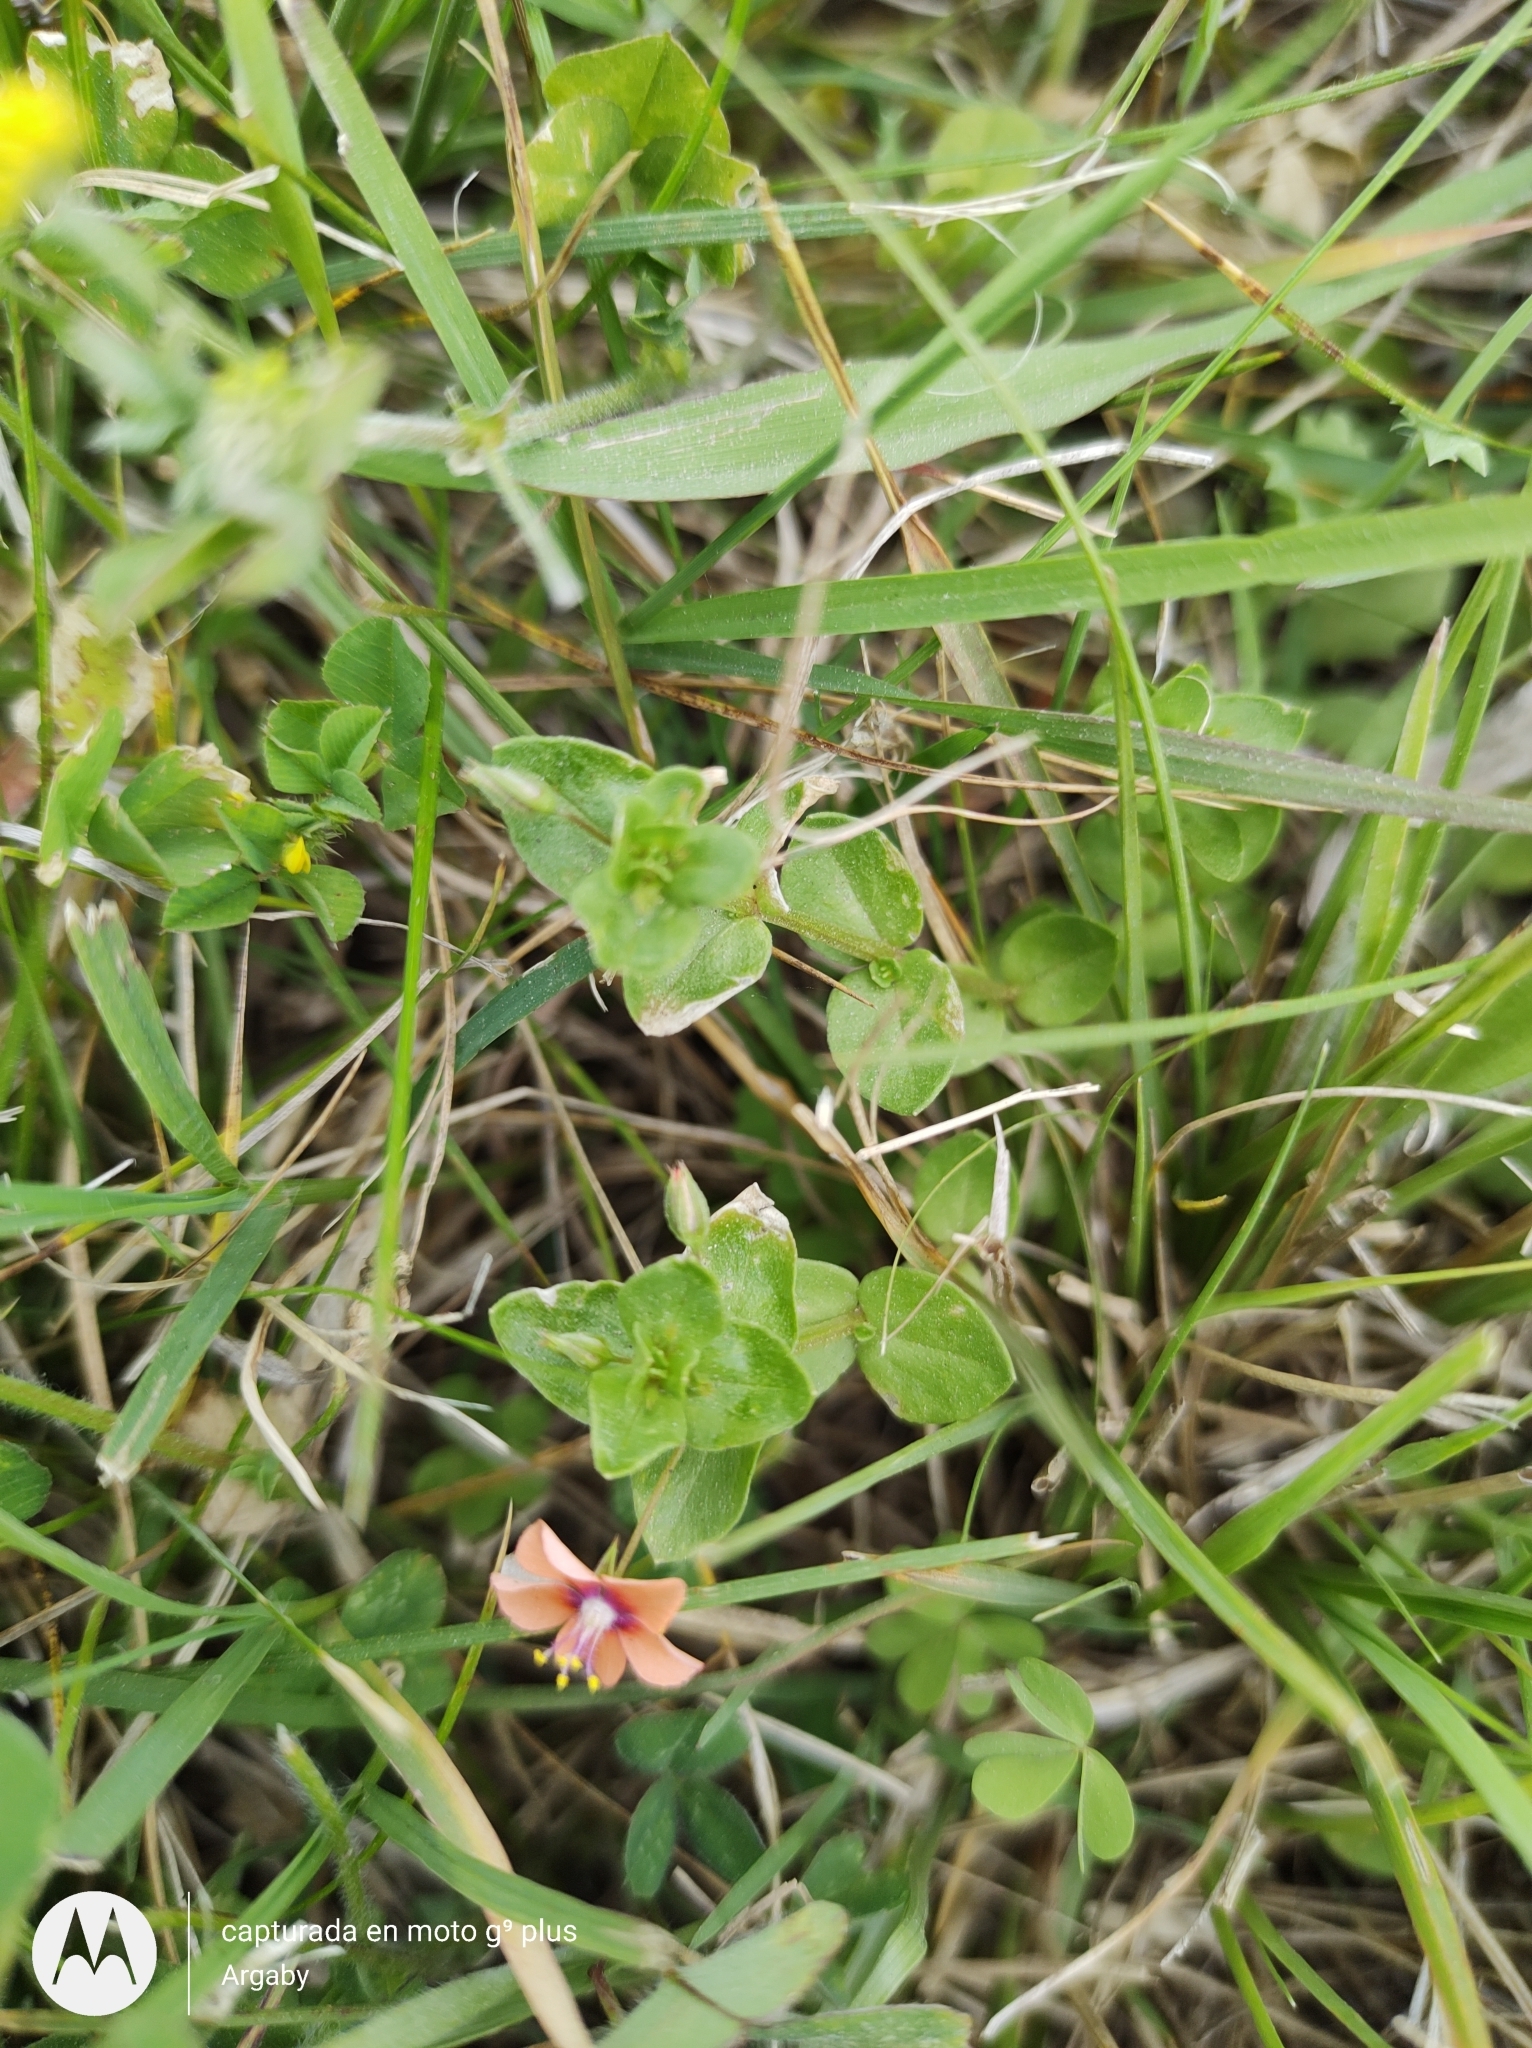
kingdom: Plantae
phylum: Tracheophyta
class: Magnoliopsida
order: Ericales
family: Primulaceae
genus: Lysimachia
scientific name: Lysimachia arvensis
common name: Scarlet pimpernel
